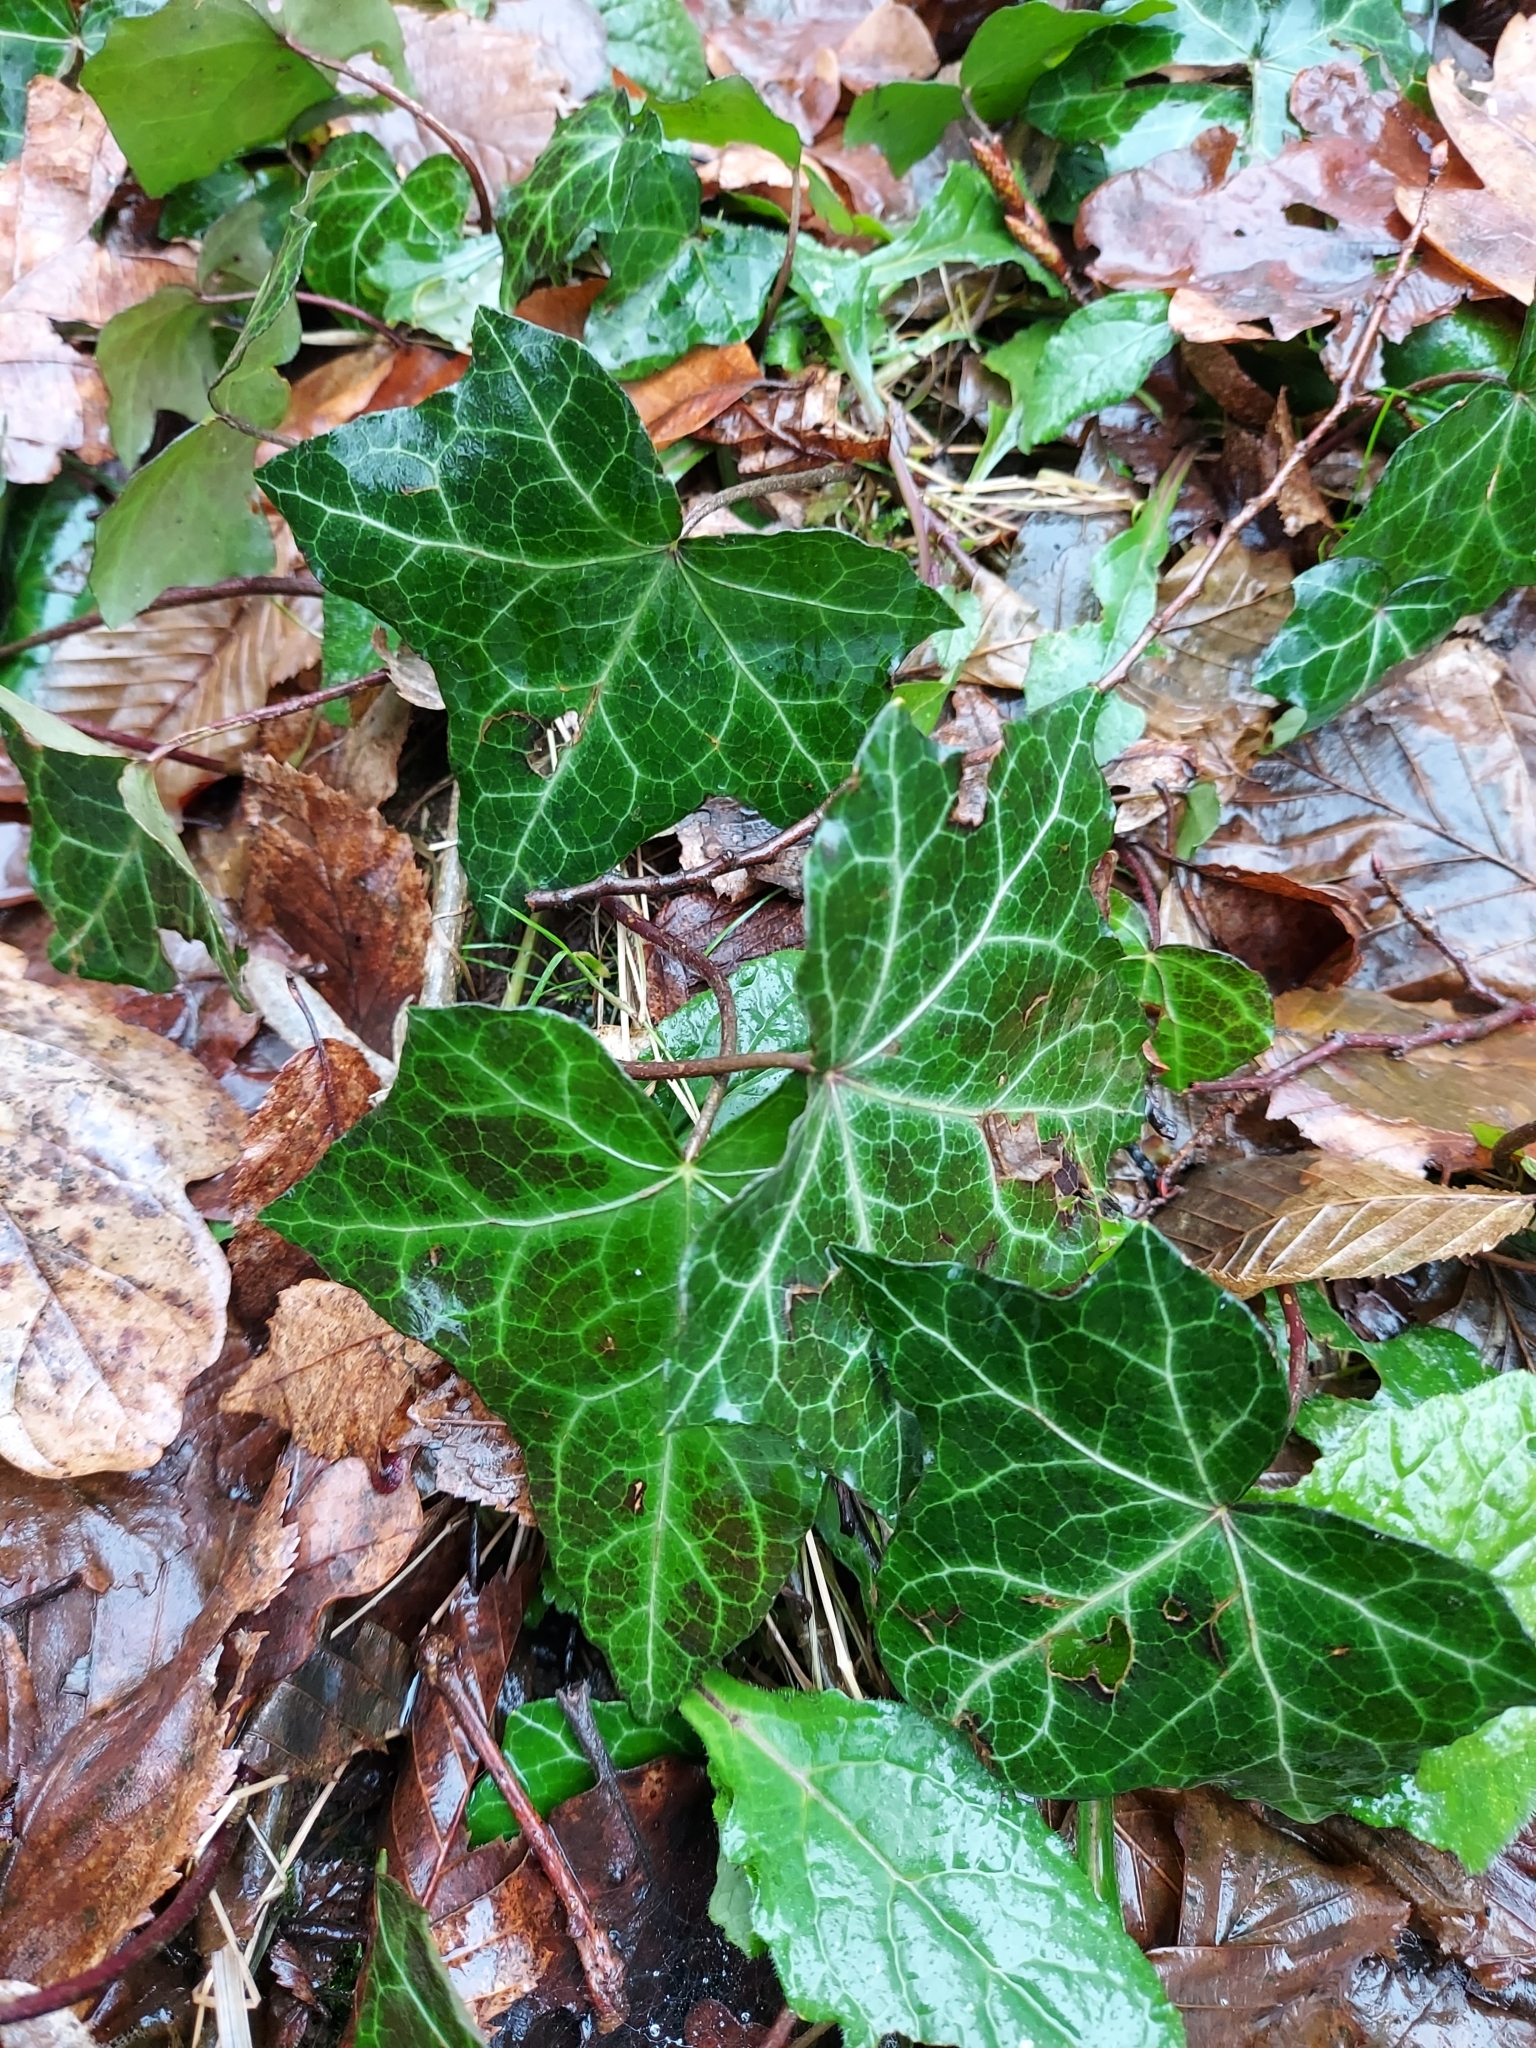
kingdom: Plantae
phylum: Tracheophyta
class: Magnoliopsida
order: Apiales
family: Araliaceae
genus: Hedera
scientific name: Hedera helix
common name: Ivy
